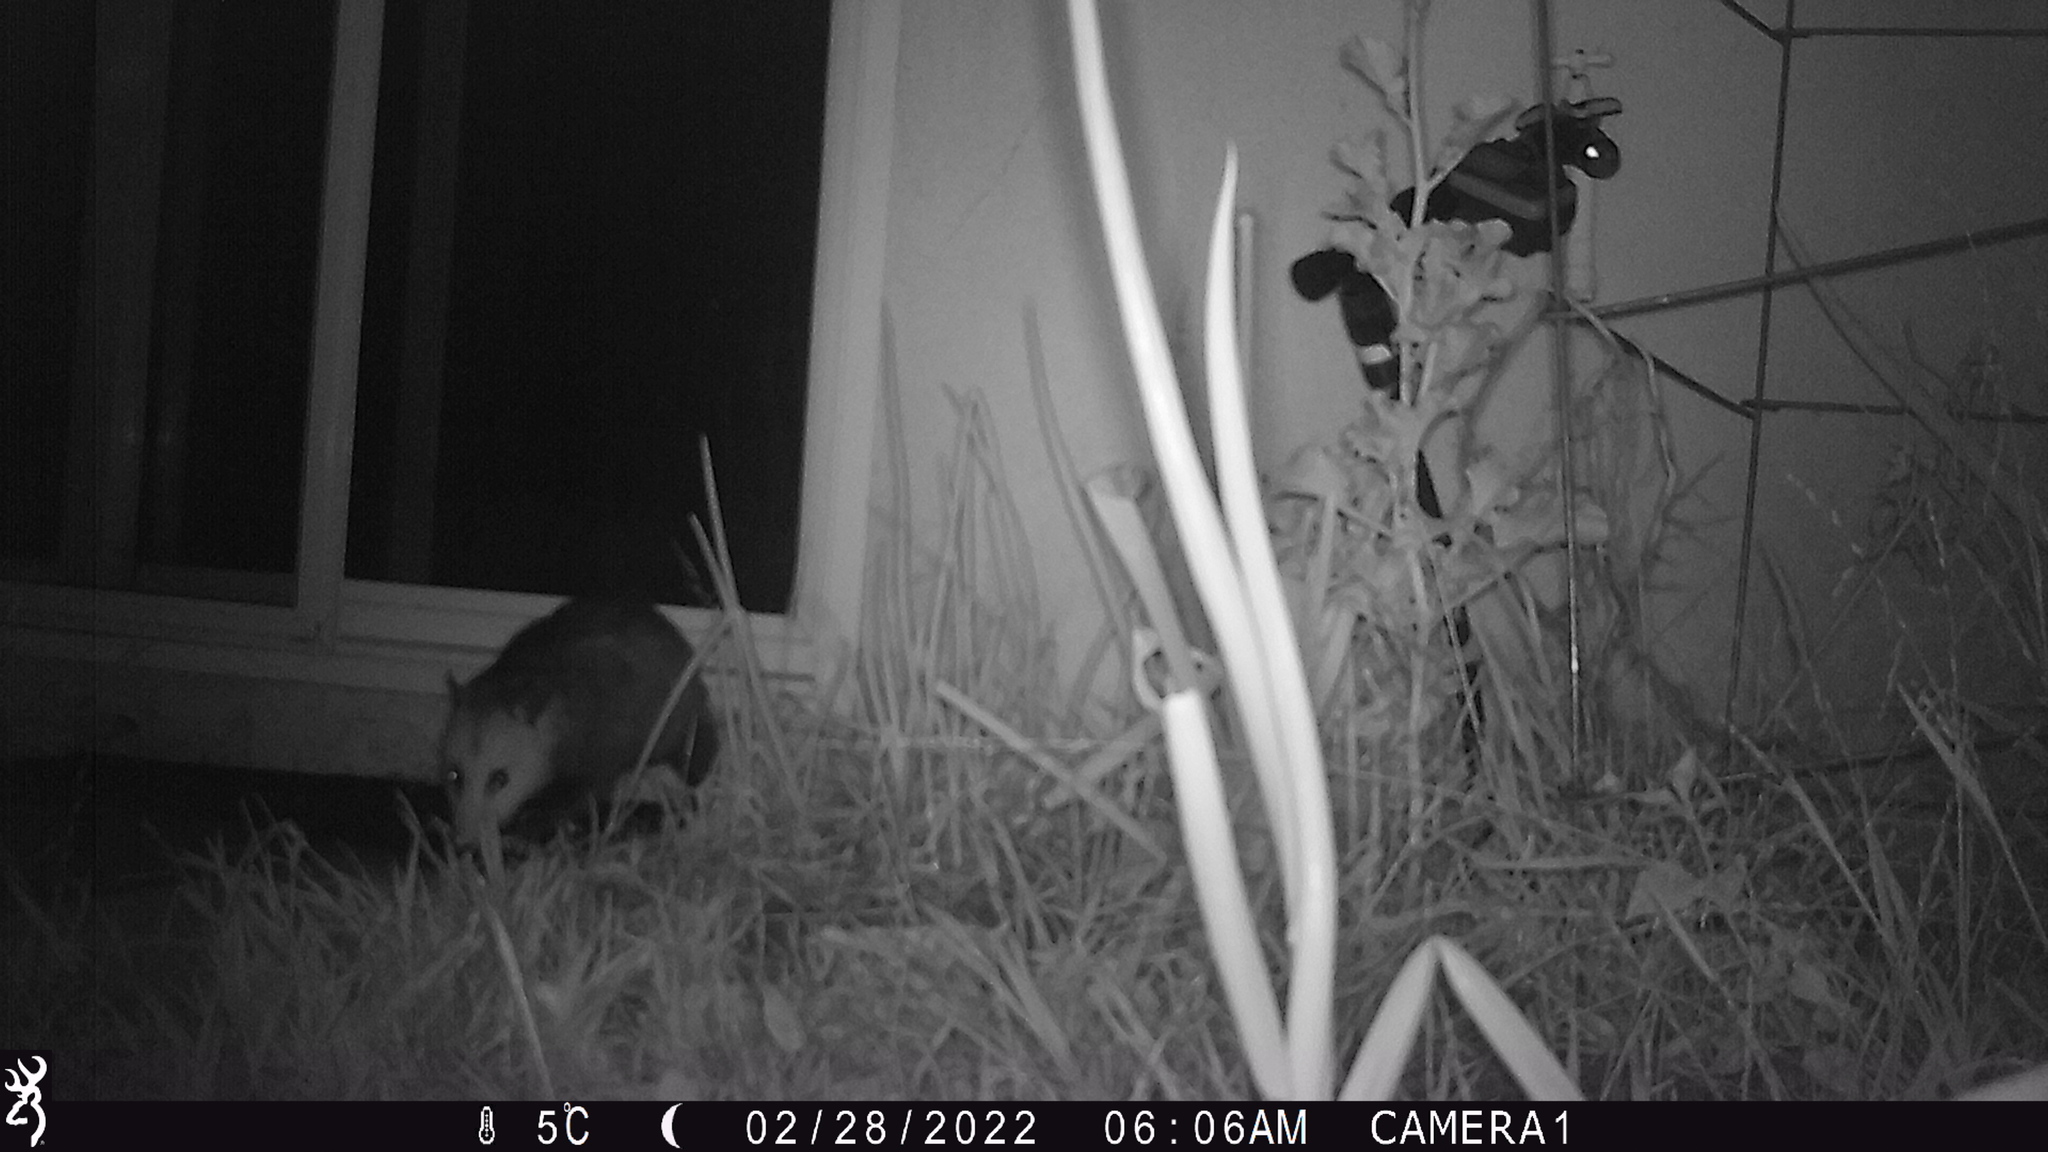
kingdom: Animalia
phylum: Chordata
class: Mammalia
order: Didelphimorphia
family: Didelphidae
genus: Didelphis
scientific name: Didelphis virginiana
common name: Virginia opossum
